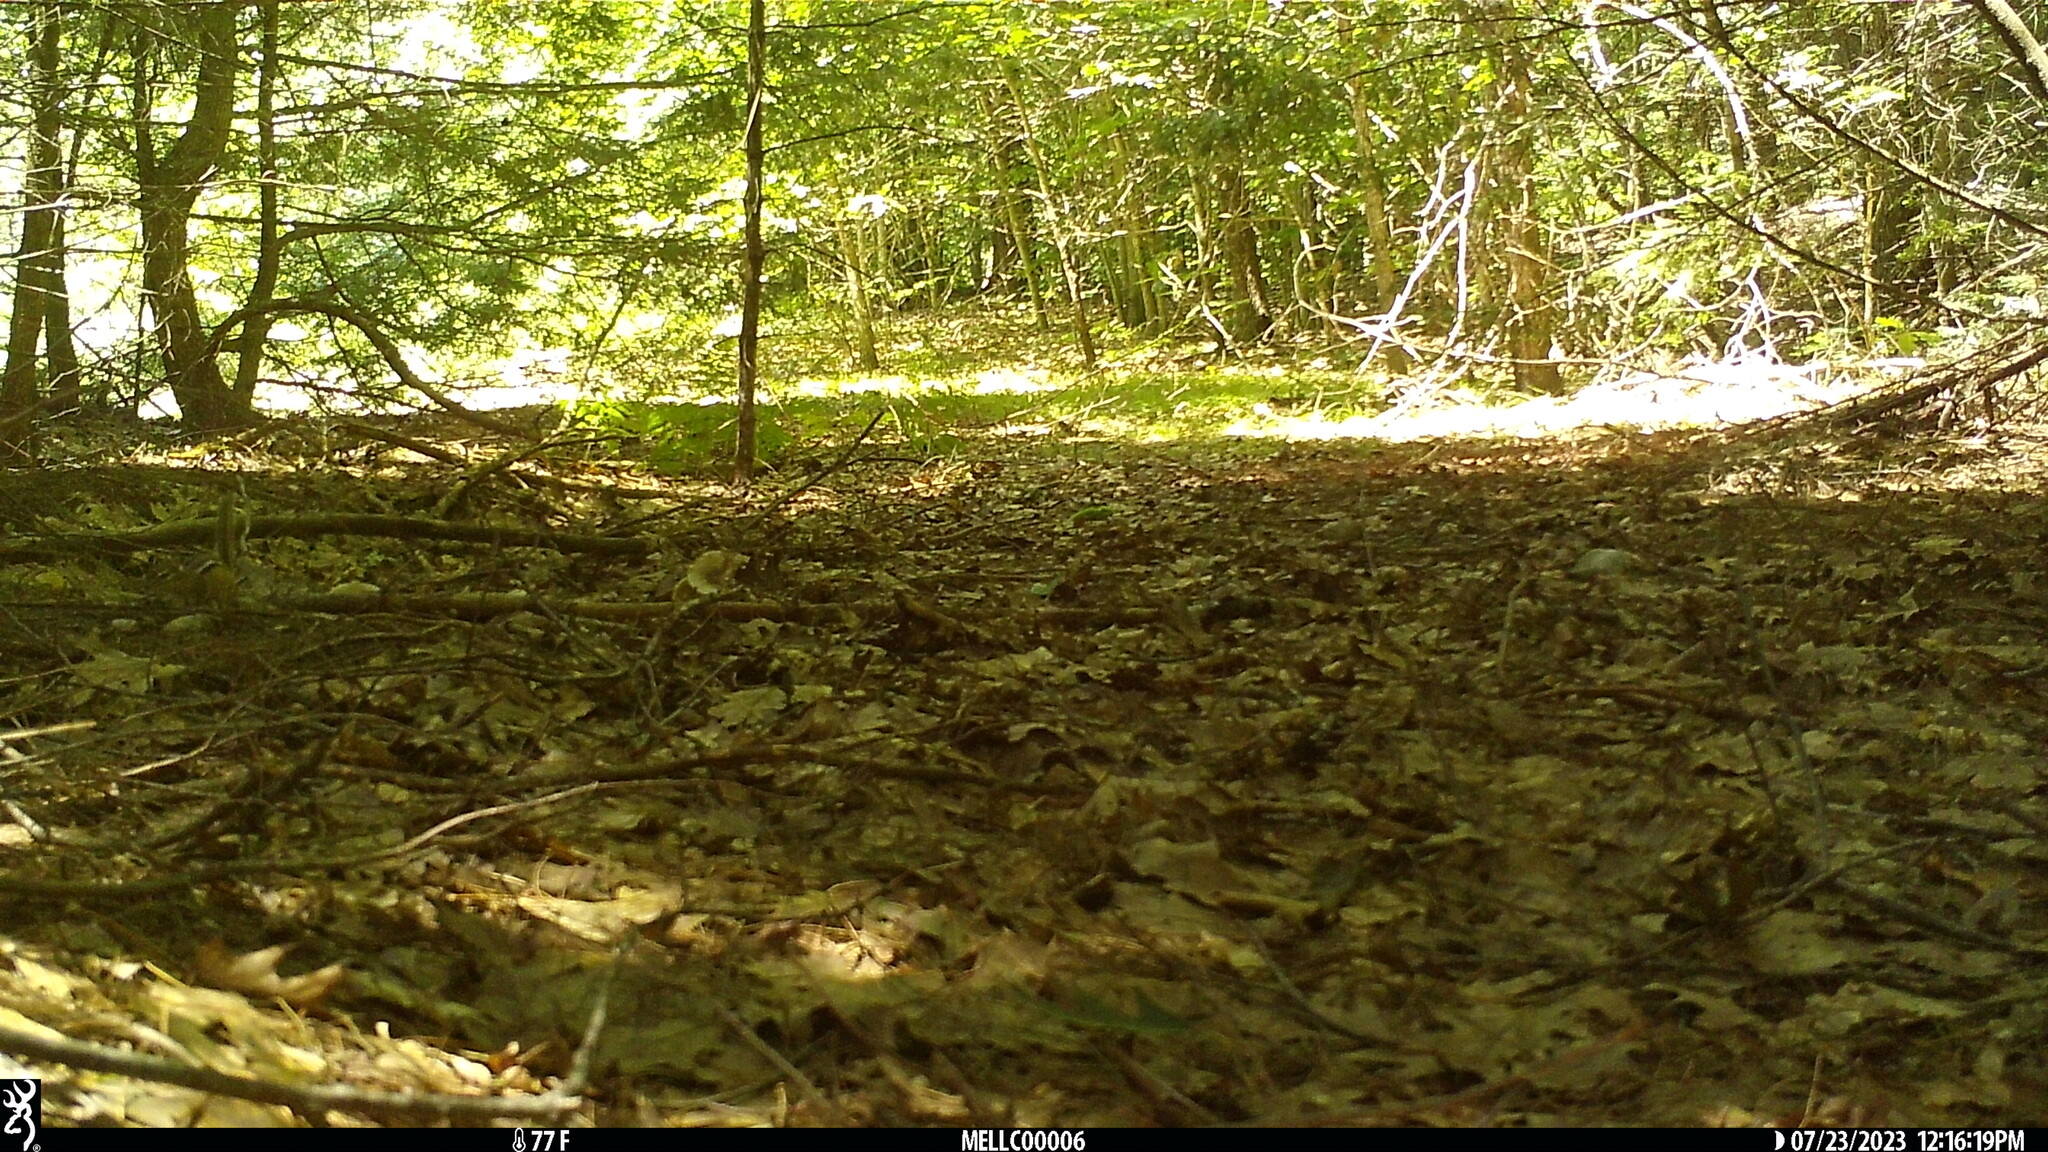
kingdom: Animalia
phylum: Chordata
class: Mammalia
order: Rodentia
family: Sciuridae
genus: Tamias
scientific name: Tamias striatus
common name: Eastern chipmunk
